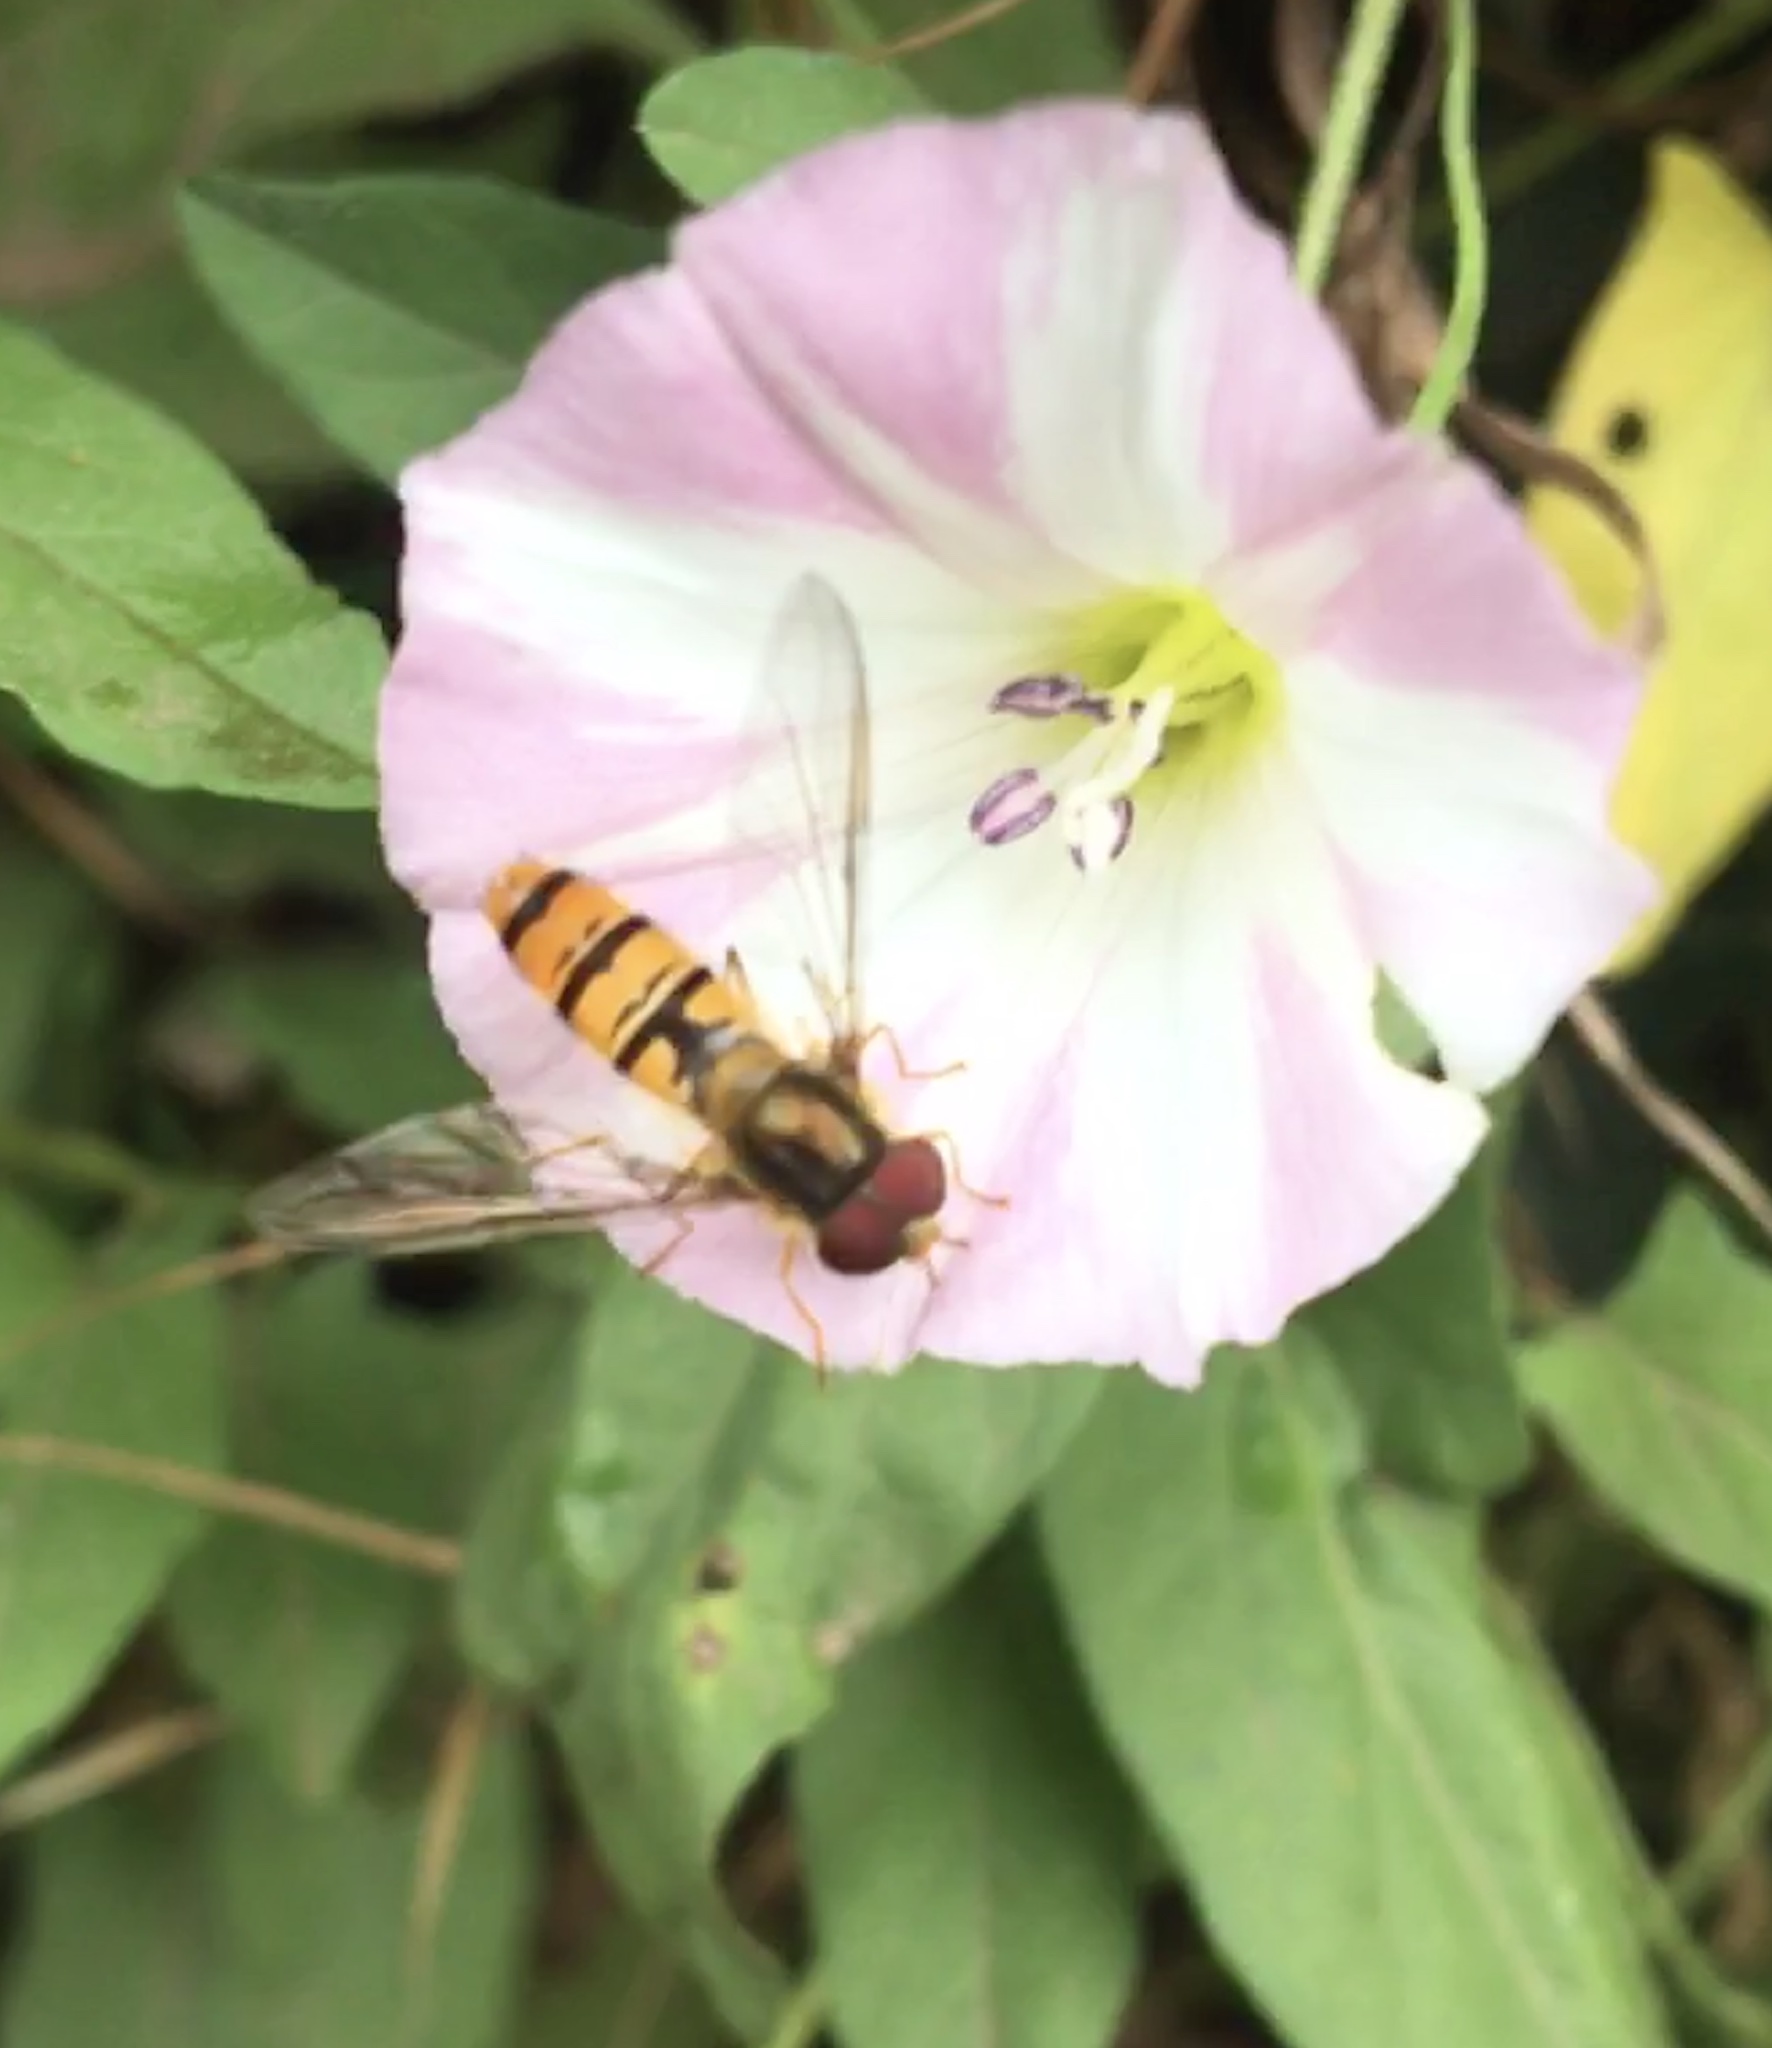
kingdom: Animalia
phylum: Arthropoda
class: Insecta
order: Diptera
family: Syrphidae
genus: Episyrphus
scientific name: Episyrphus balteatus
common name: Marmalade hoverfly
